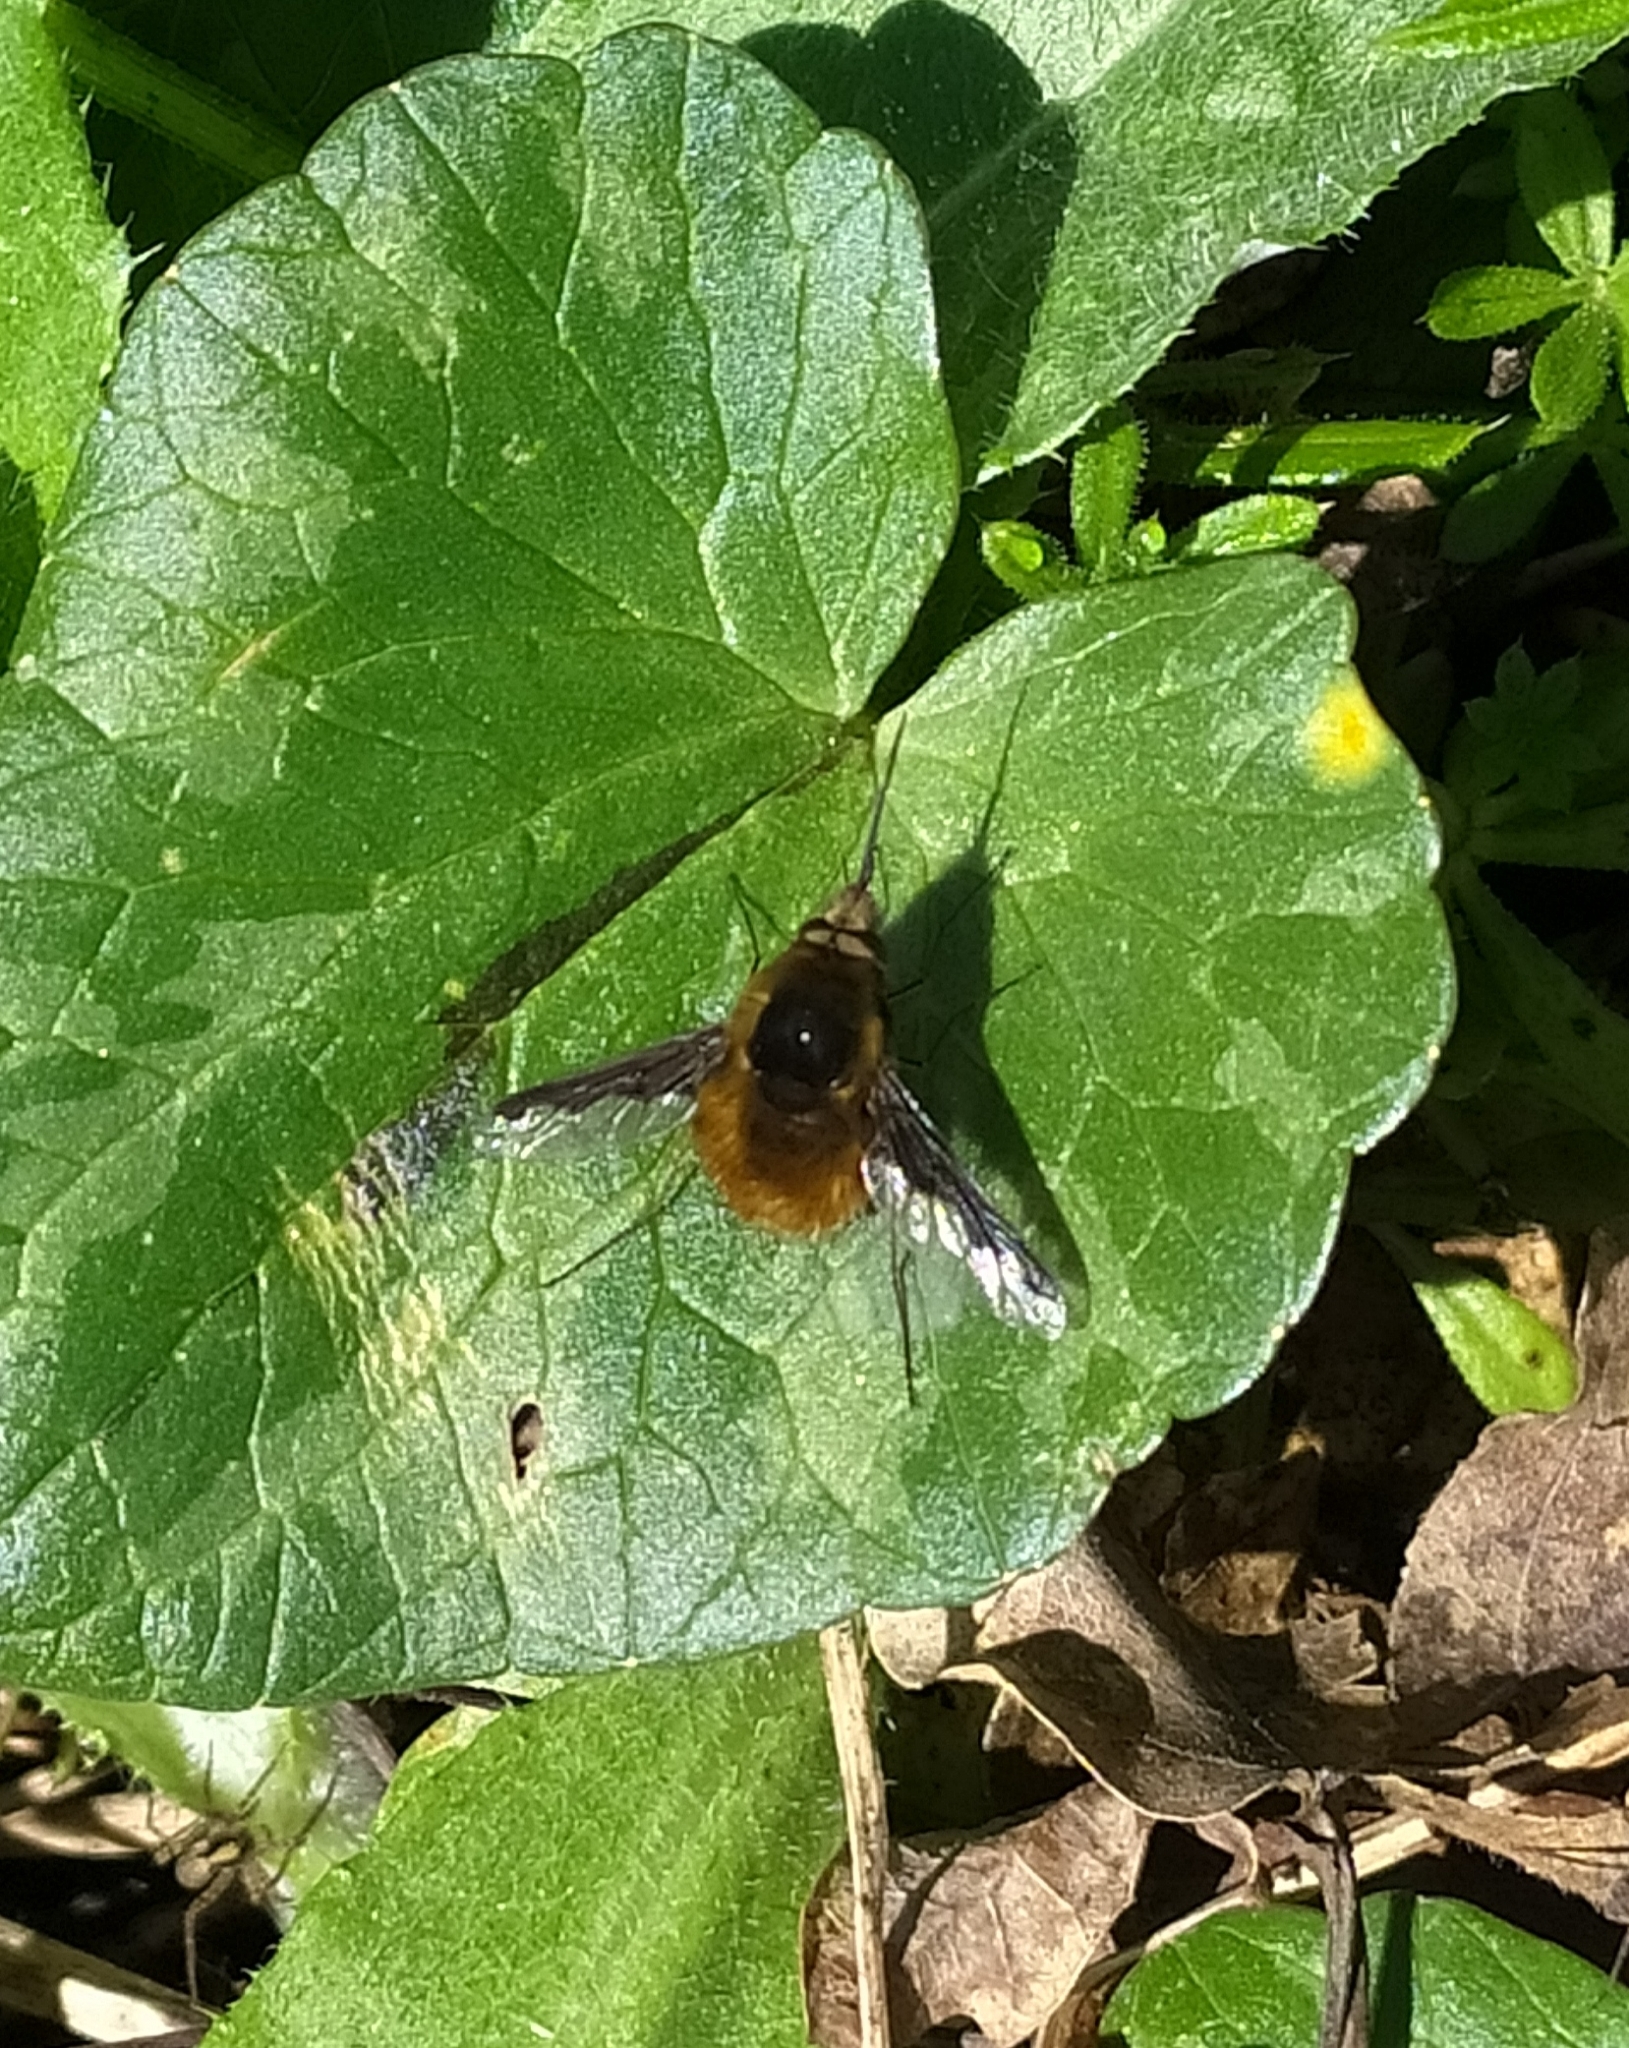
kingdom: Animalia
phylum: Arthropoda
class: Insecta
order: Diptera
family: Bombyliidae
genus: Bombylius
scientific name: Bombylius major
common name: Bee fly
